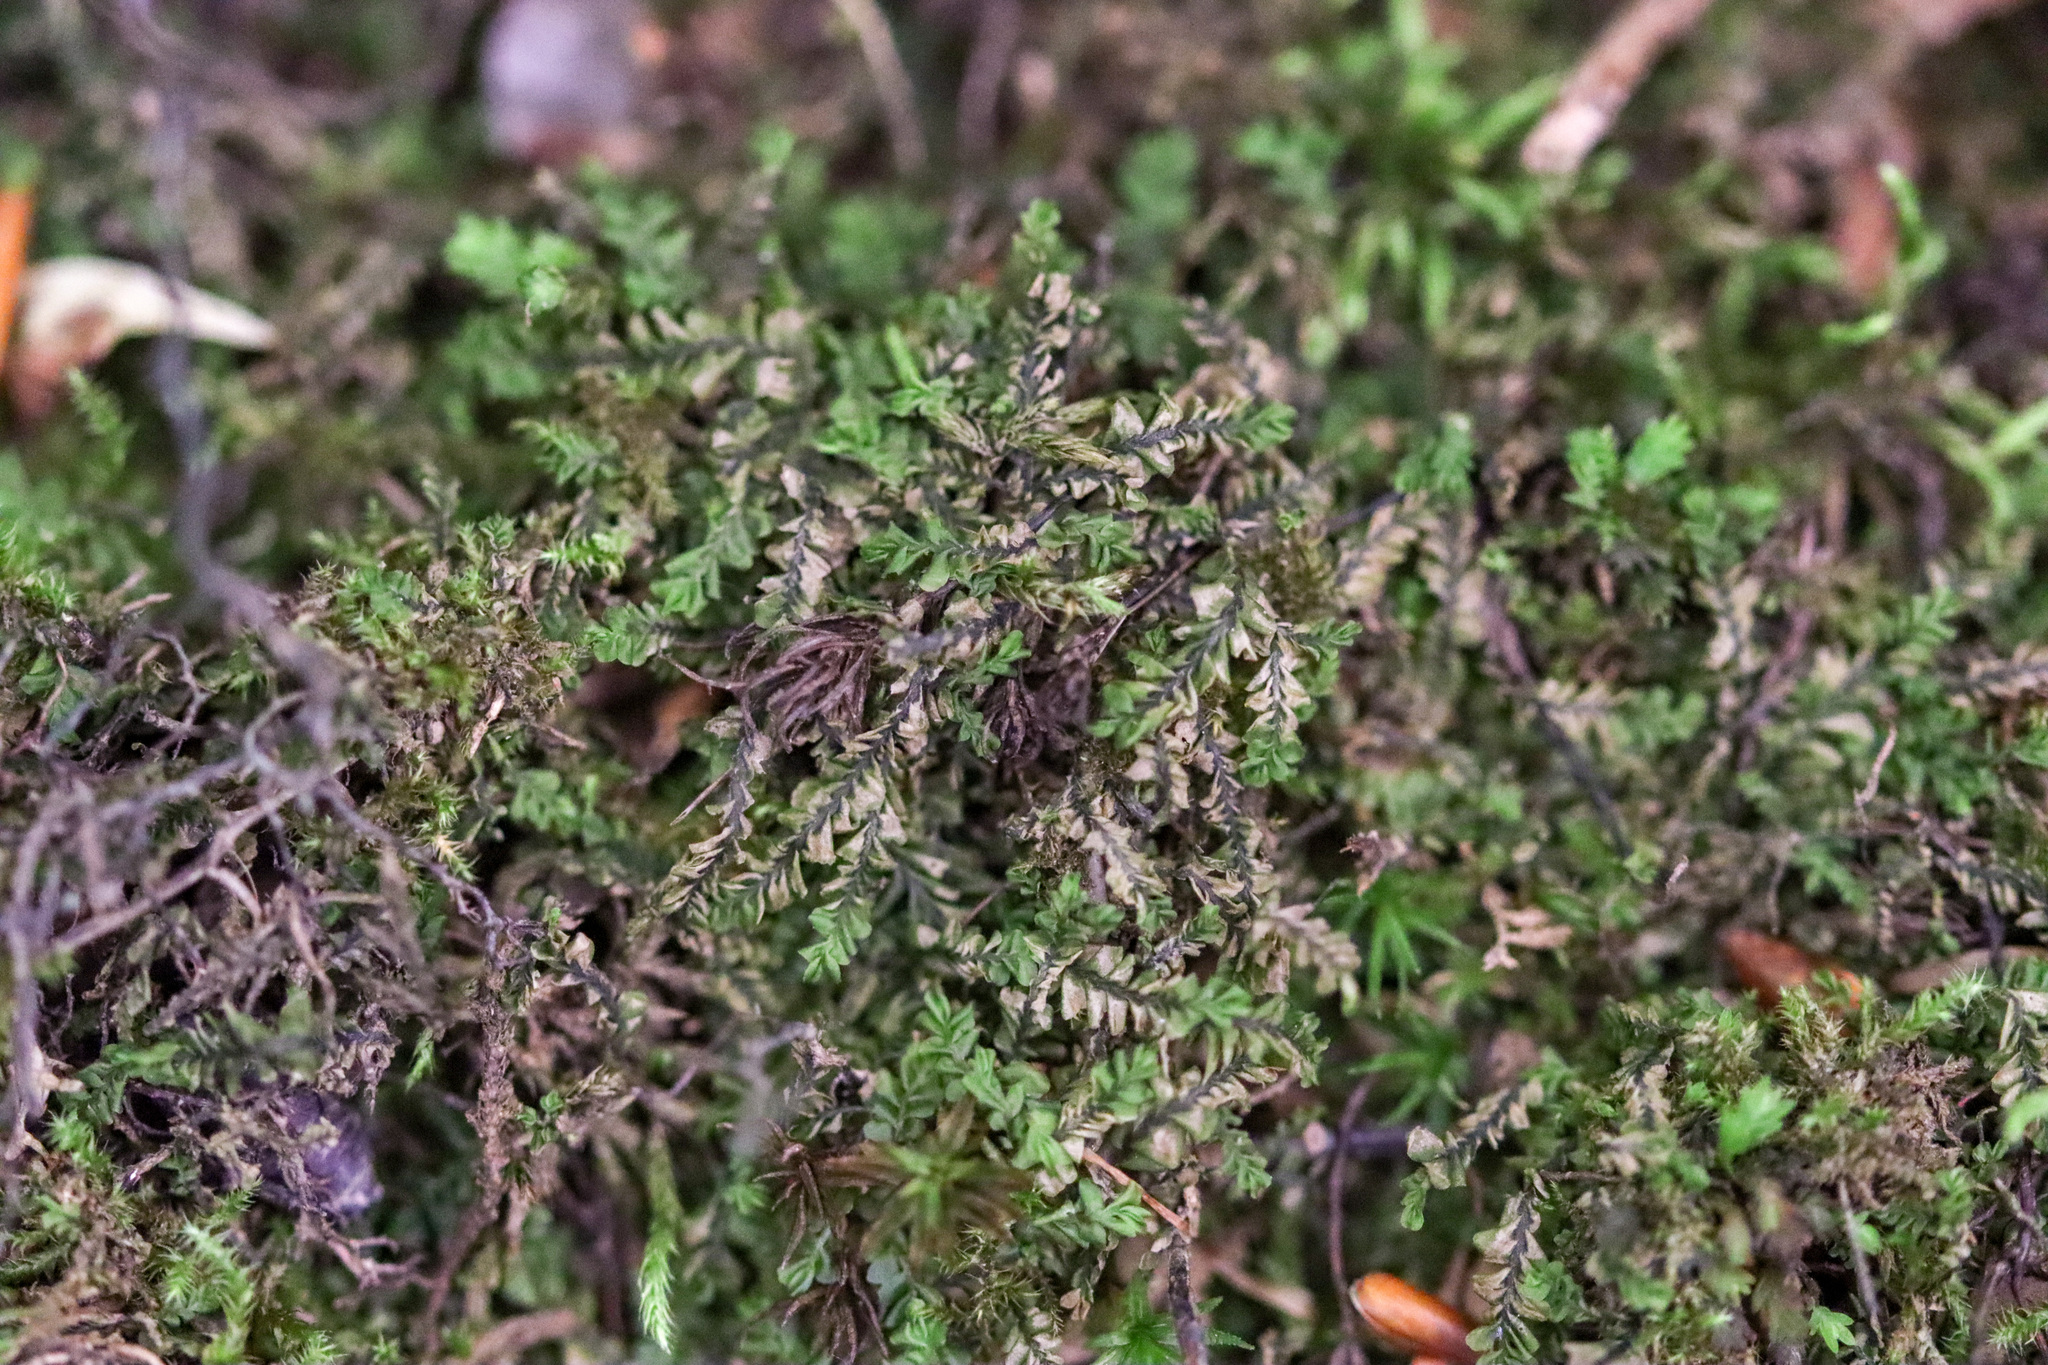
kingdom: Plantae
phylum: Marchantiophyta
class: Jungermanniopsida
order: Jungermanniales
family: Plagiochilaceae
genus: Plagiochila
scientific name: Plagiochila porelloides
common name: Lesser featherwort
